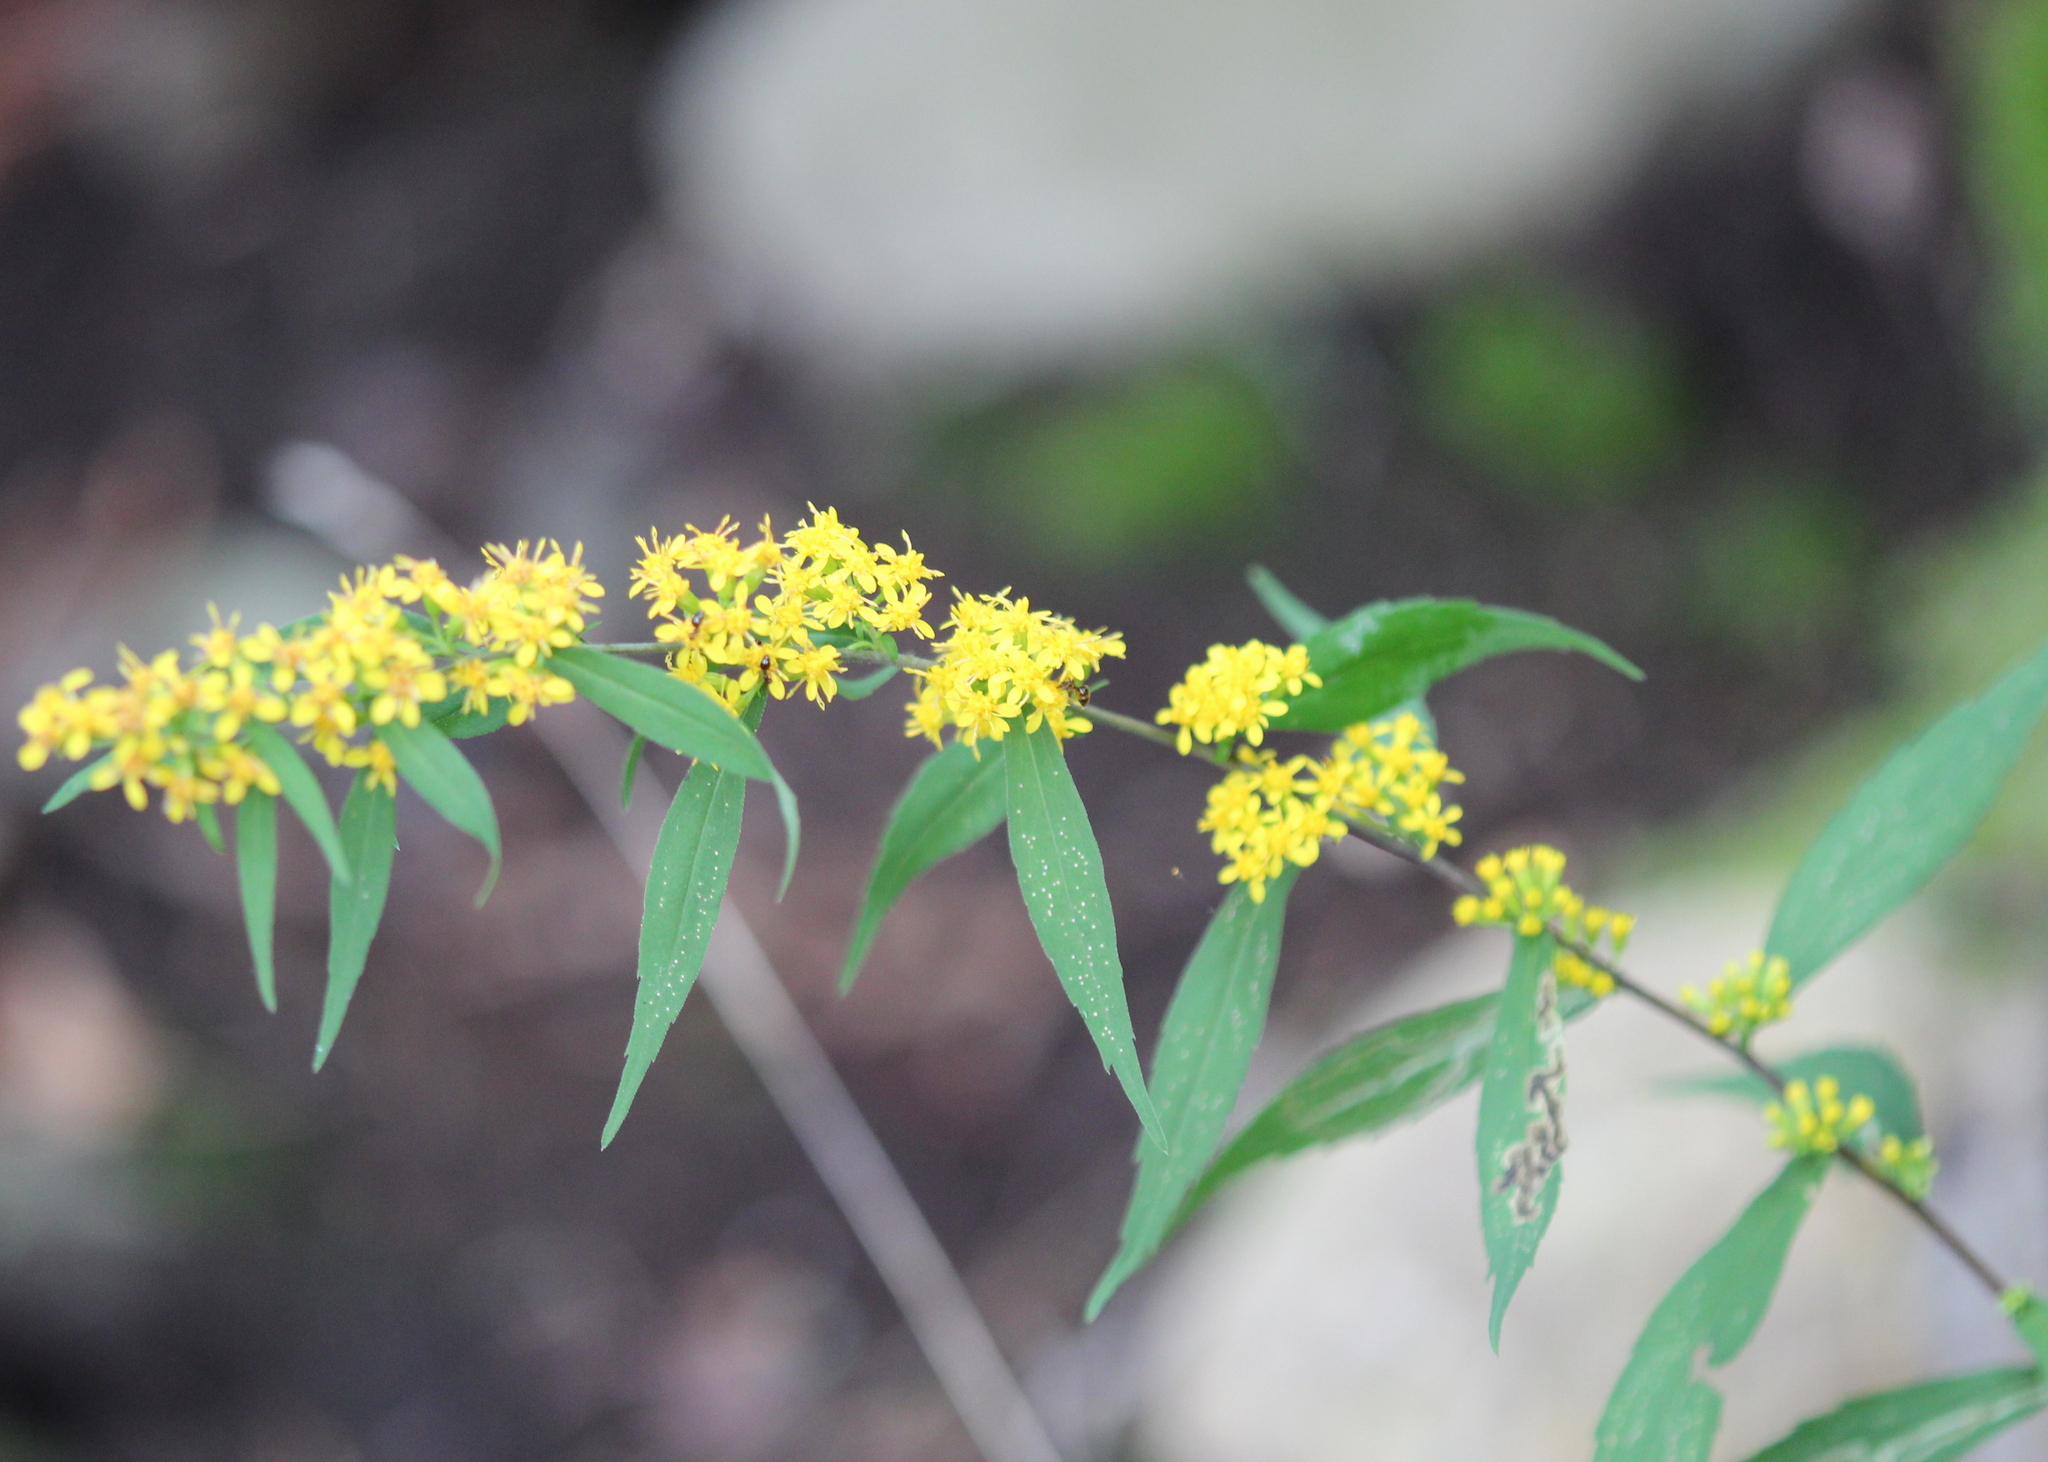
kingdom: Plantae
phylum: Tracheophyta
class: Magnoliopsida
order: Asterales
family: Asteraceae
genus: Solidago
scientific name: Solidago caesia
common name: Woodland goldenrod
